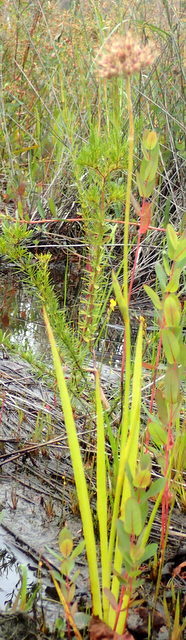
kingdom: Plantae
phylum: Tracheophyta
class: Liliopsida
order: Commelinales
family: Haemodoraceae
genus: Lachnanthes
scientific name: Lachnanthes caroliana
